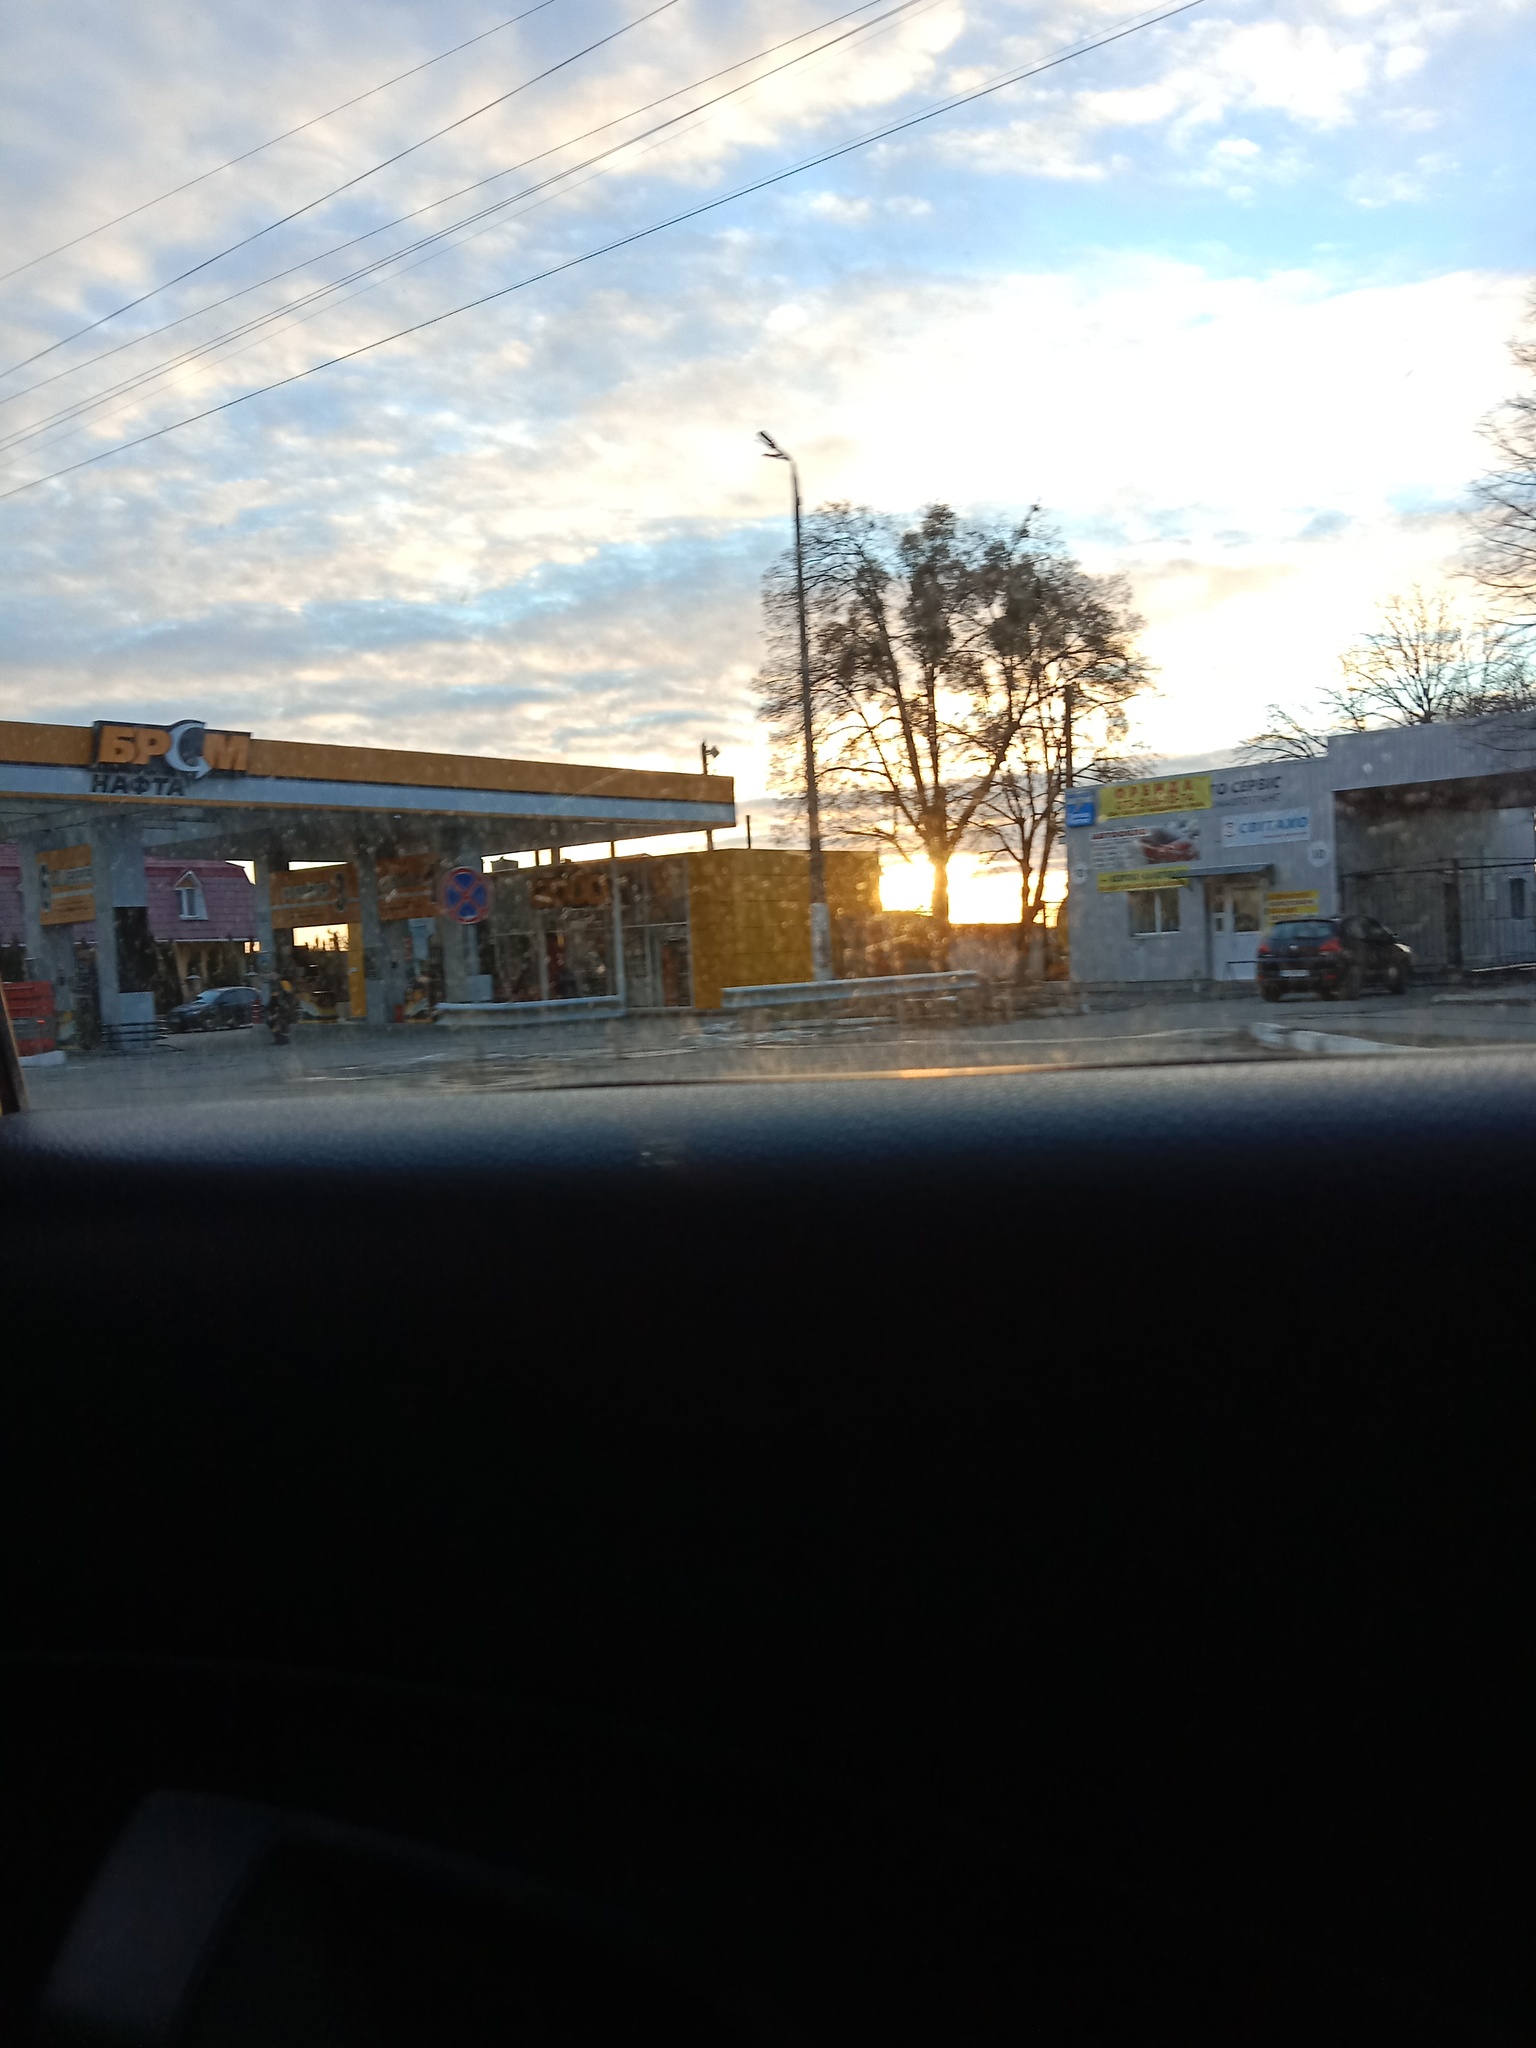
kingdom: Plantae
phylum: Tracheophyta
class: Magnoliopsida
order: Santalales
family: Viscaceae
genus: Viscum
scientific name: Viscum album
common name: Mistletoe
